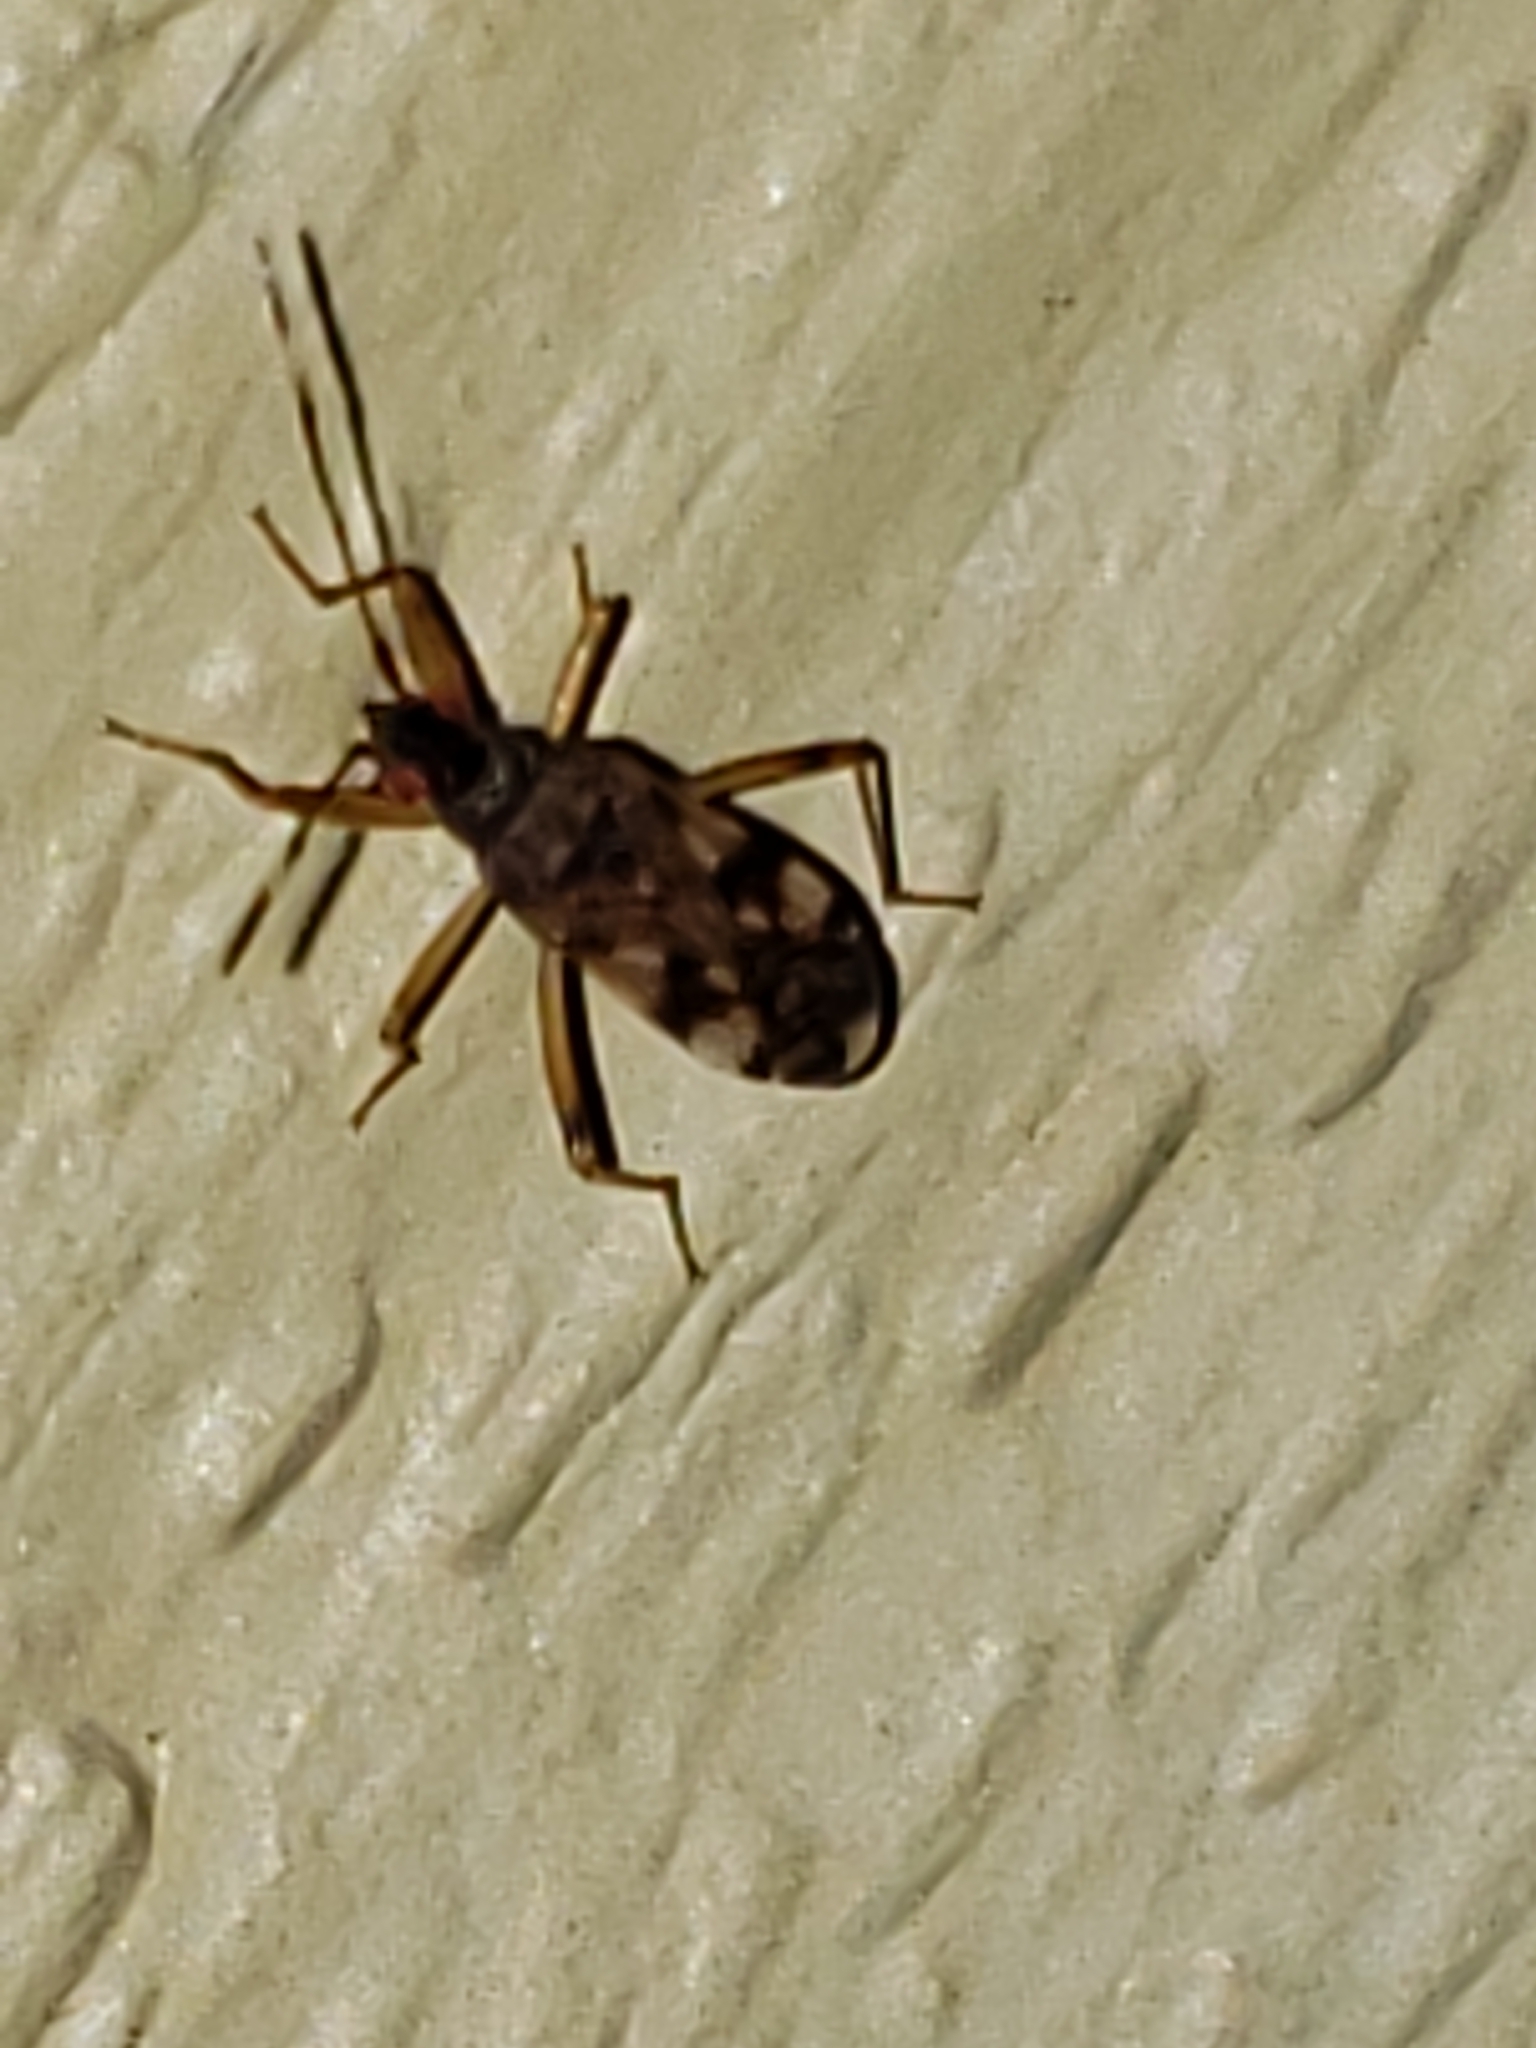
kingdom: Animalia
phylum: Arthropoda
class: Insecta
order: Hemiptera
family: Rhyparochromidae
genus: Ozophora
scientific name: Ozophora picturata
